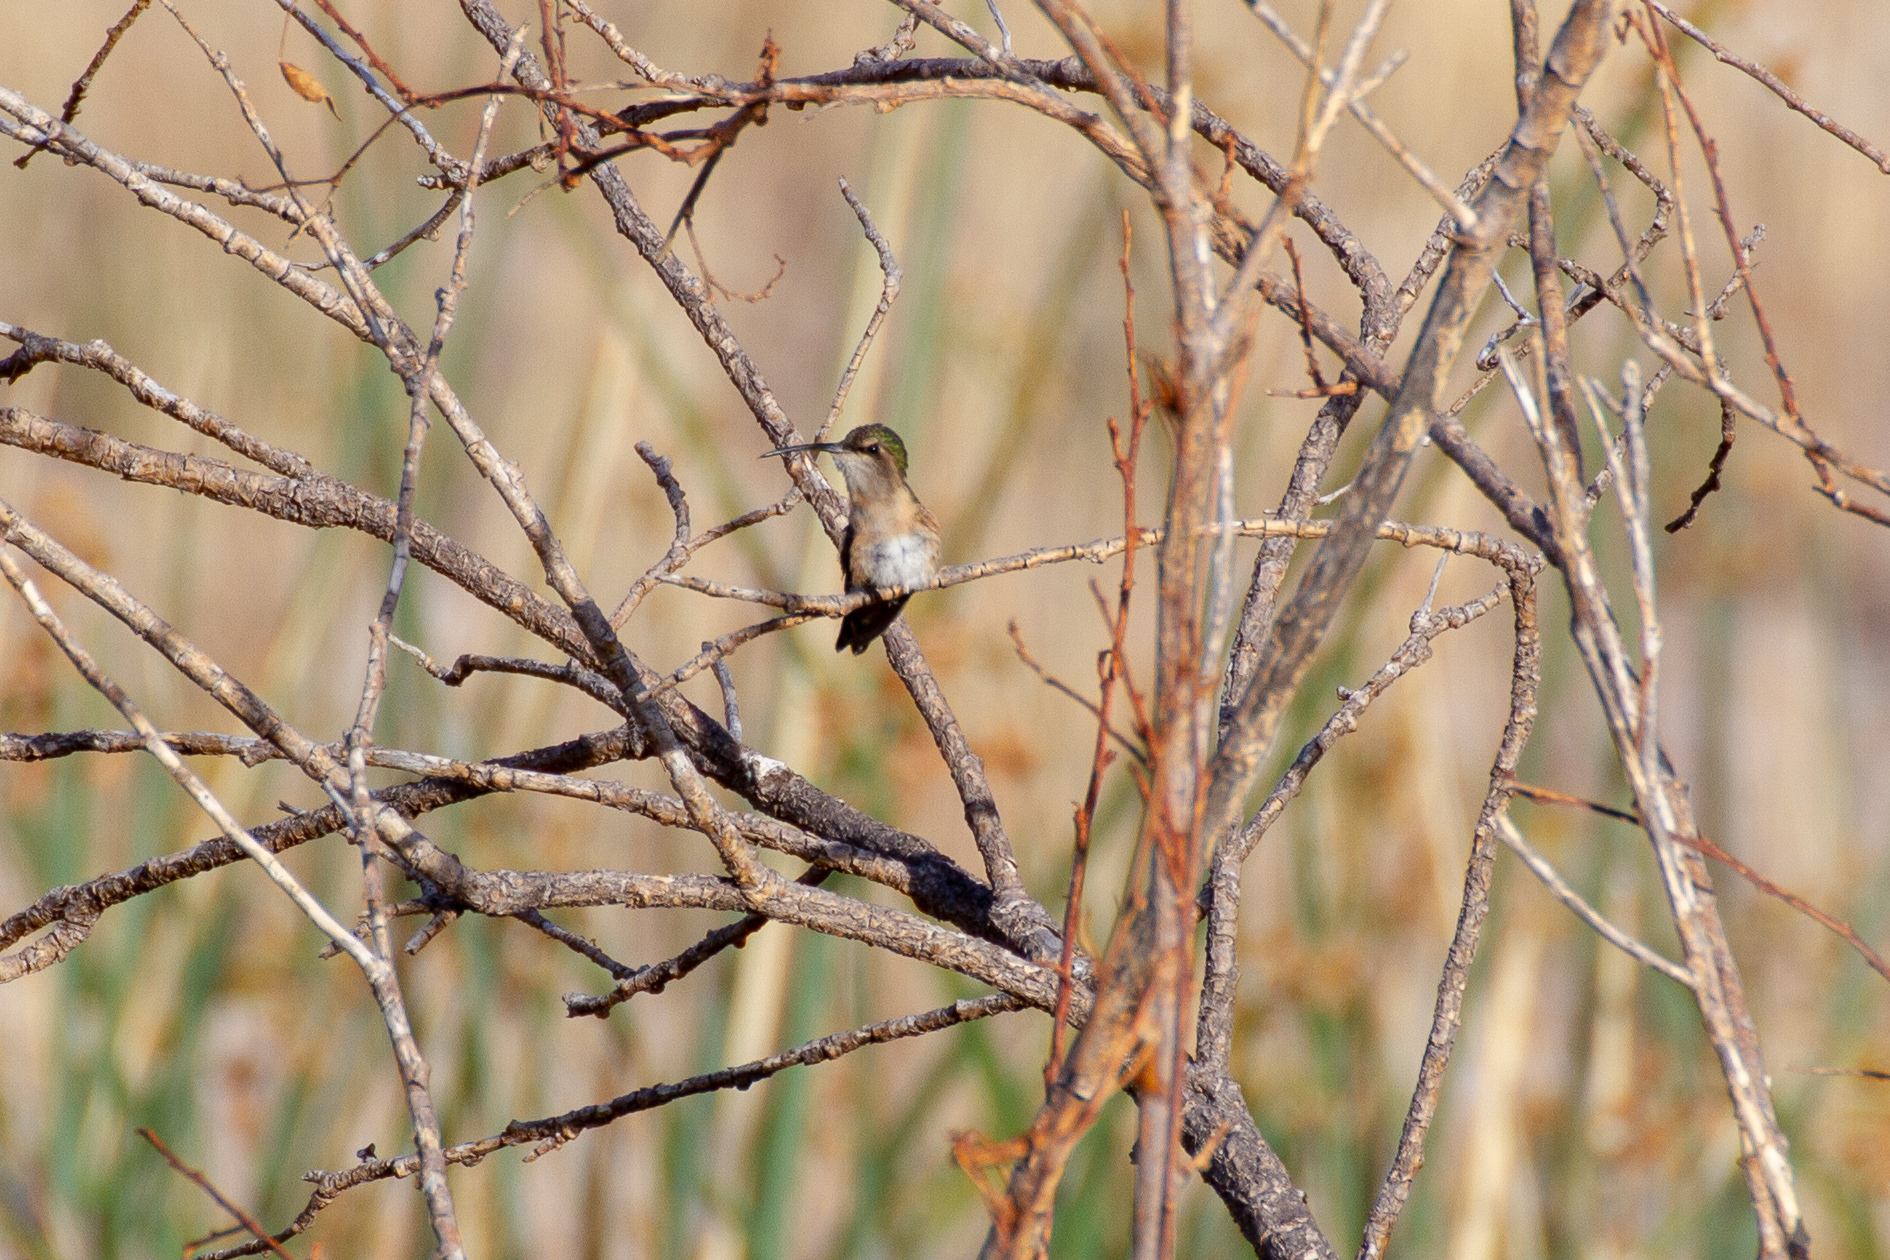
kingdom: Animalia
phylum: Chordata
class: Aves
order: Apodiformes
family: Trochilidae
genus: Calothorax
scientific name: Calothorax lucifer
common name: Lucifer sheartail
